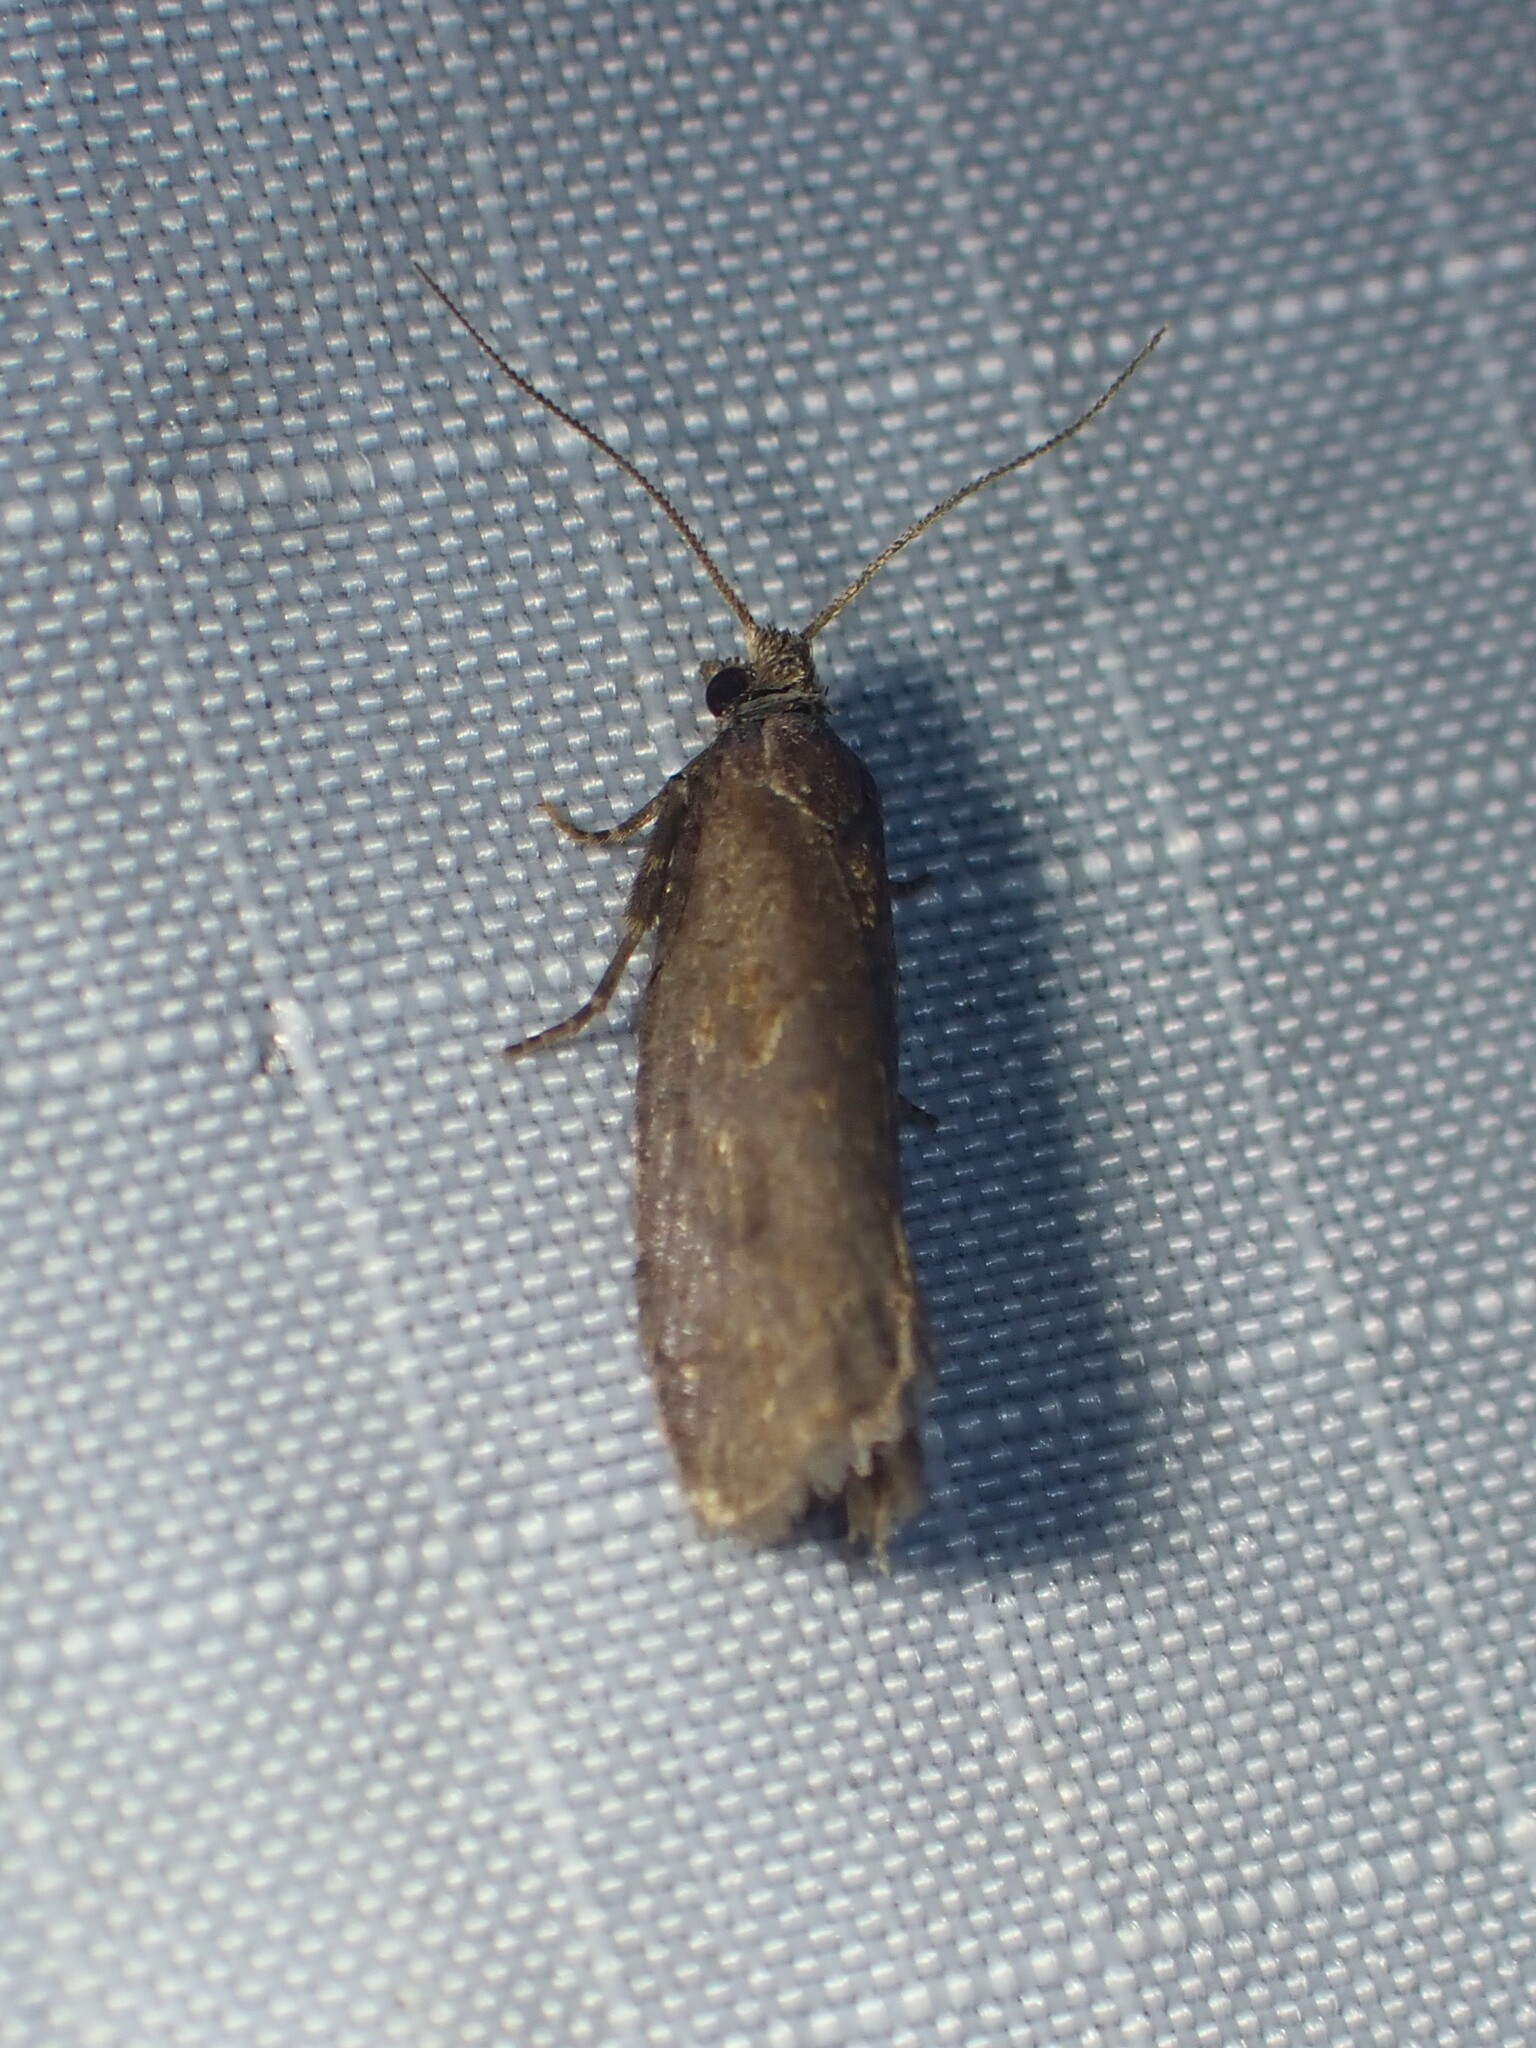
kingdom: Animalia
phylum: Arthropoda
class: Insecta
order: Lepidoptera
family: Tortricidae
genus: Epinotia
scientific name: Epinotia myricana
